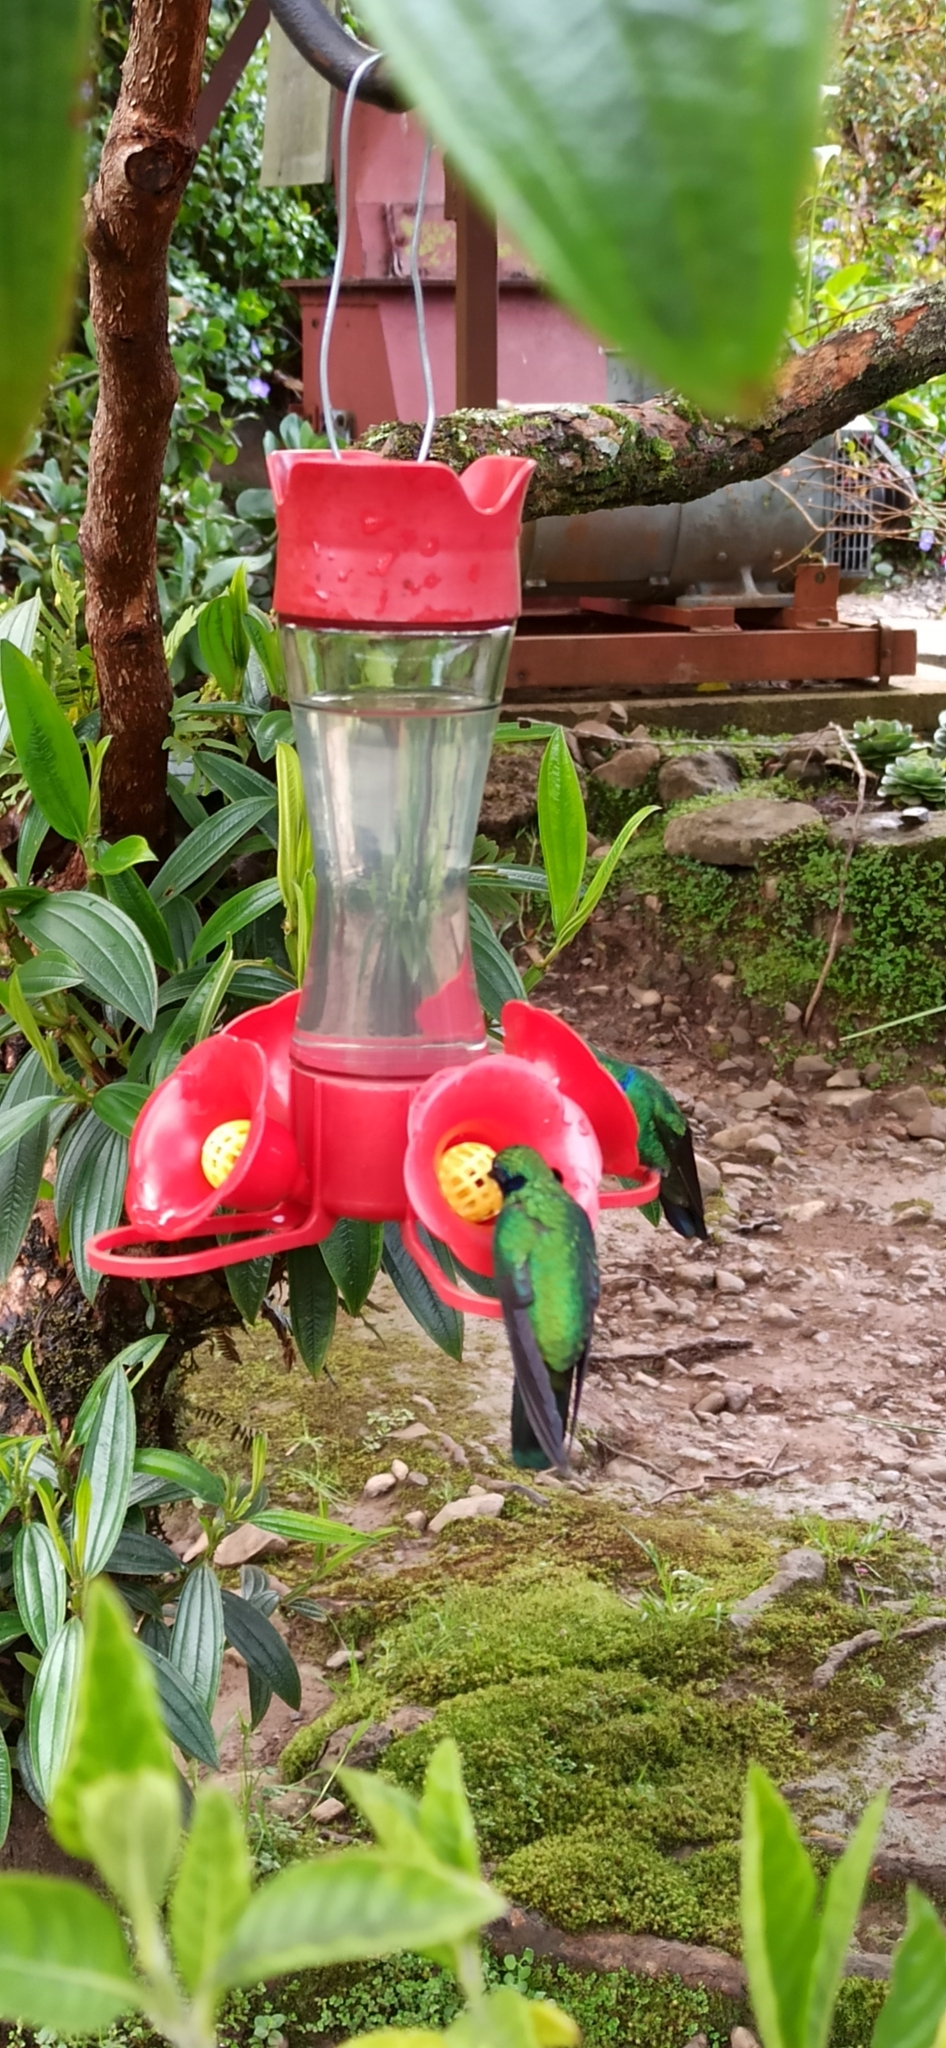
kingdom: Animalia
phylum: Chordata
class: Aves
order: Apodiformes
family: Trochilidae
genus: Colibri
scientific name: Colibri cyanotus
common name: Lesser violetear
